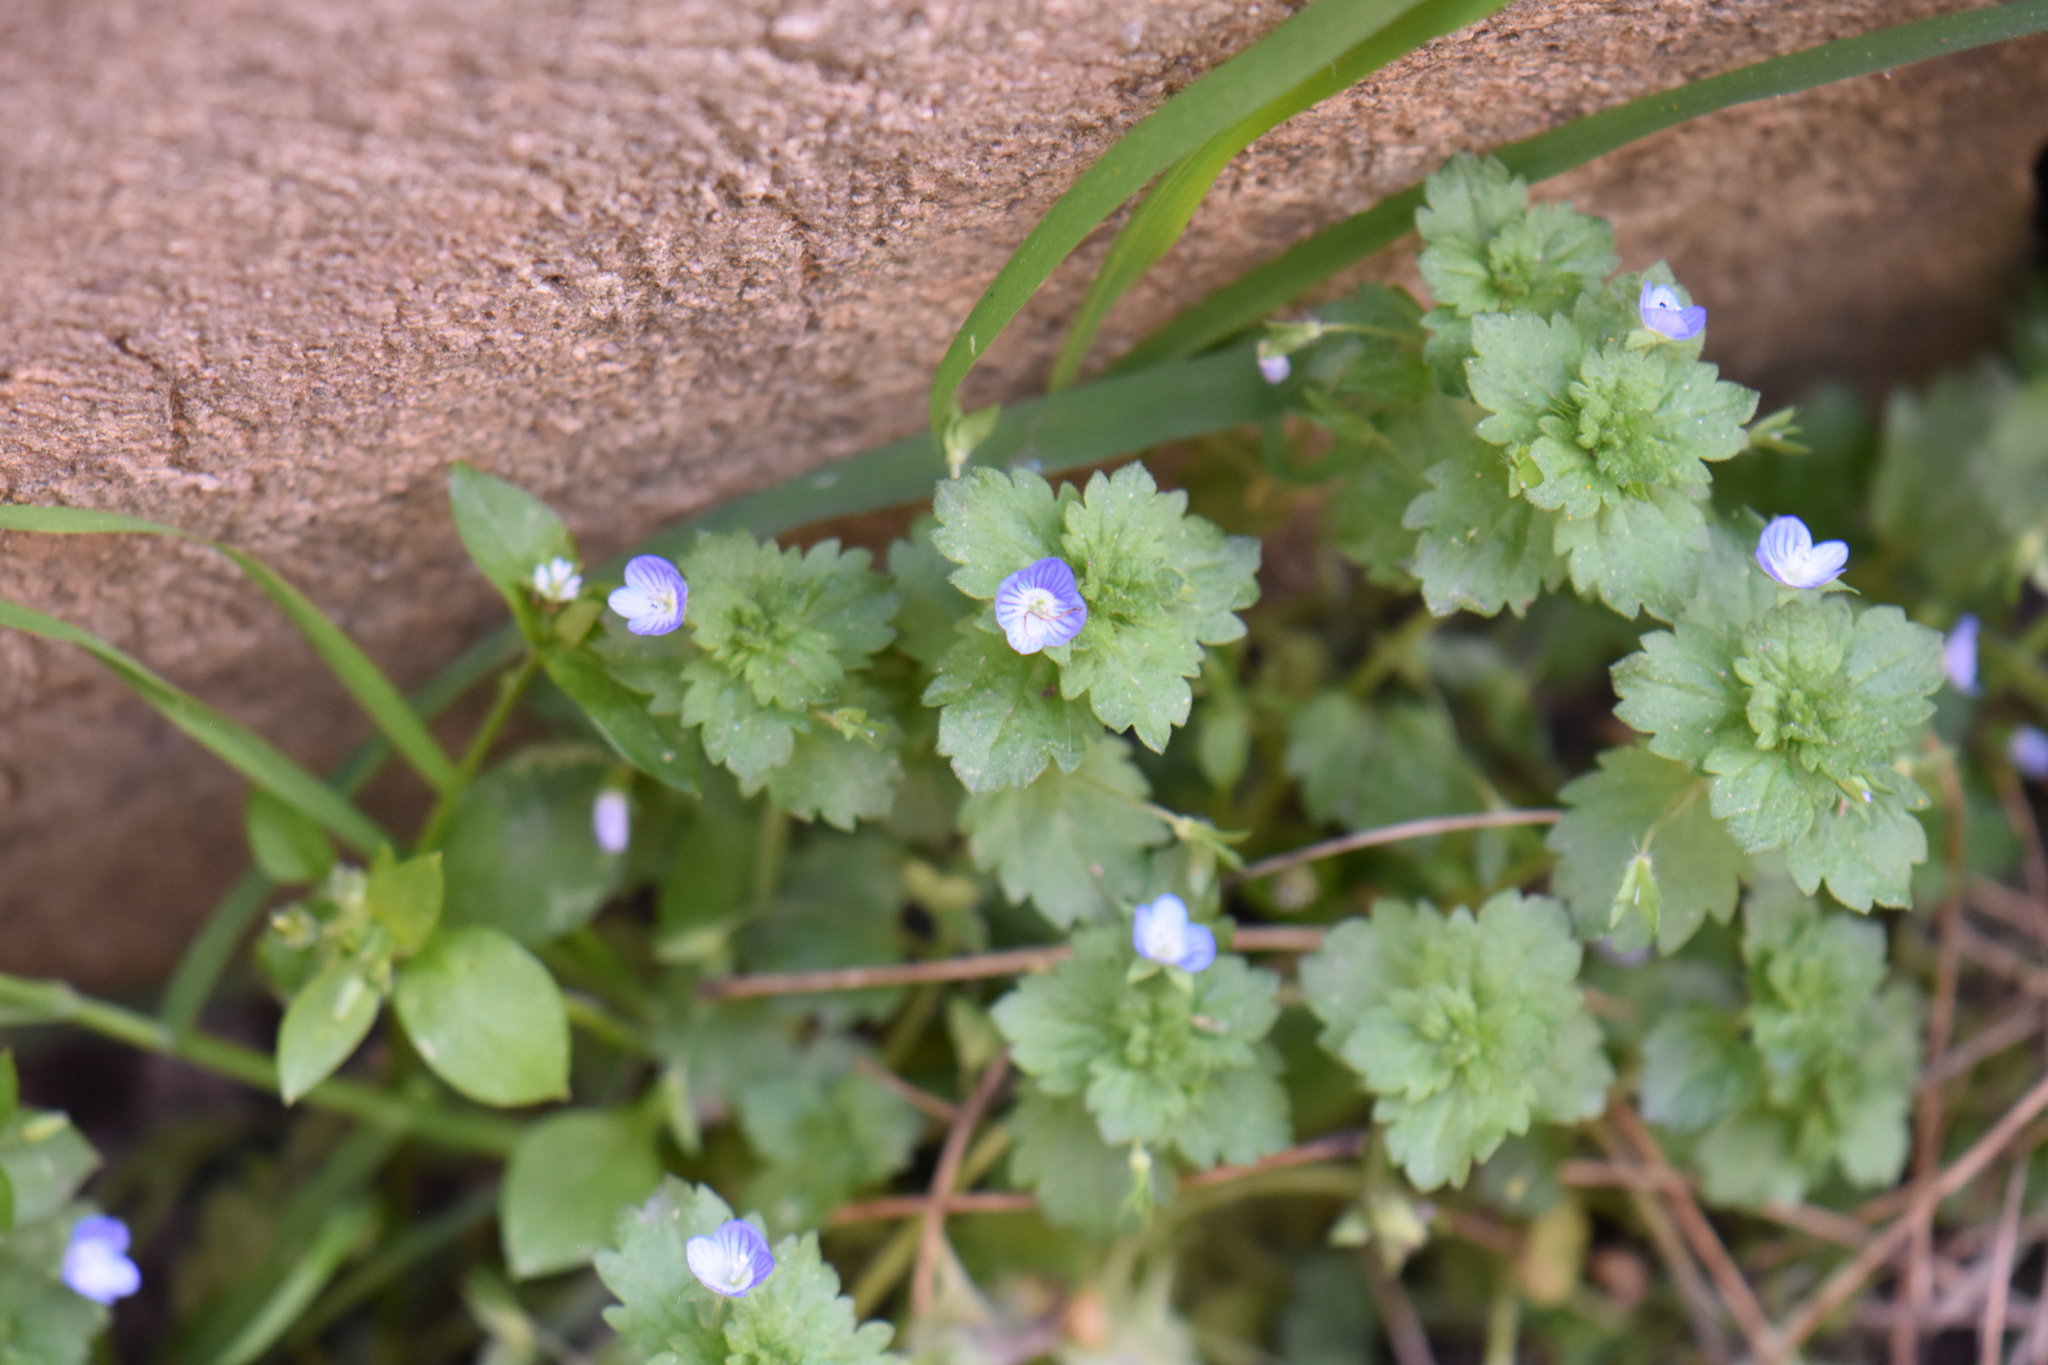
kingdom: Plantae
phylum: Tracheophyta
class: Magnoliopsida
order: Lamiales
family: Plantaginaceae
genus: Veronica
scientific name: Veronica persica
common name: Common field-speedwell
